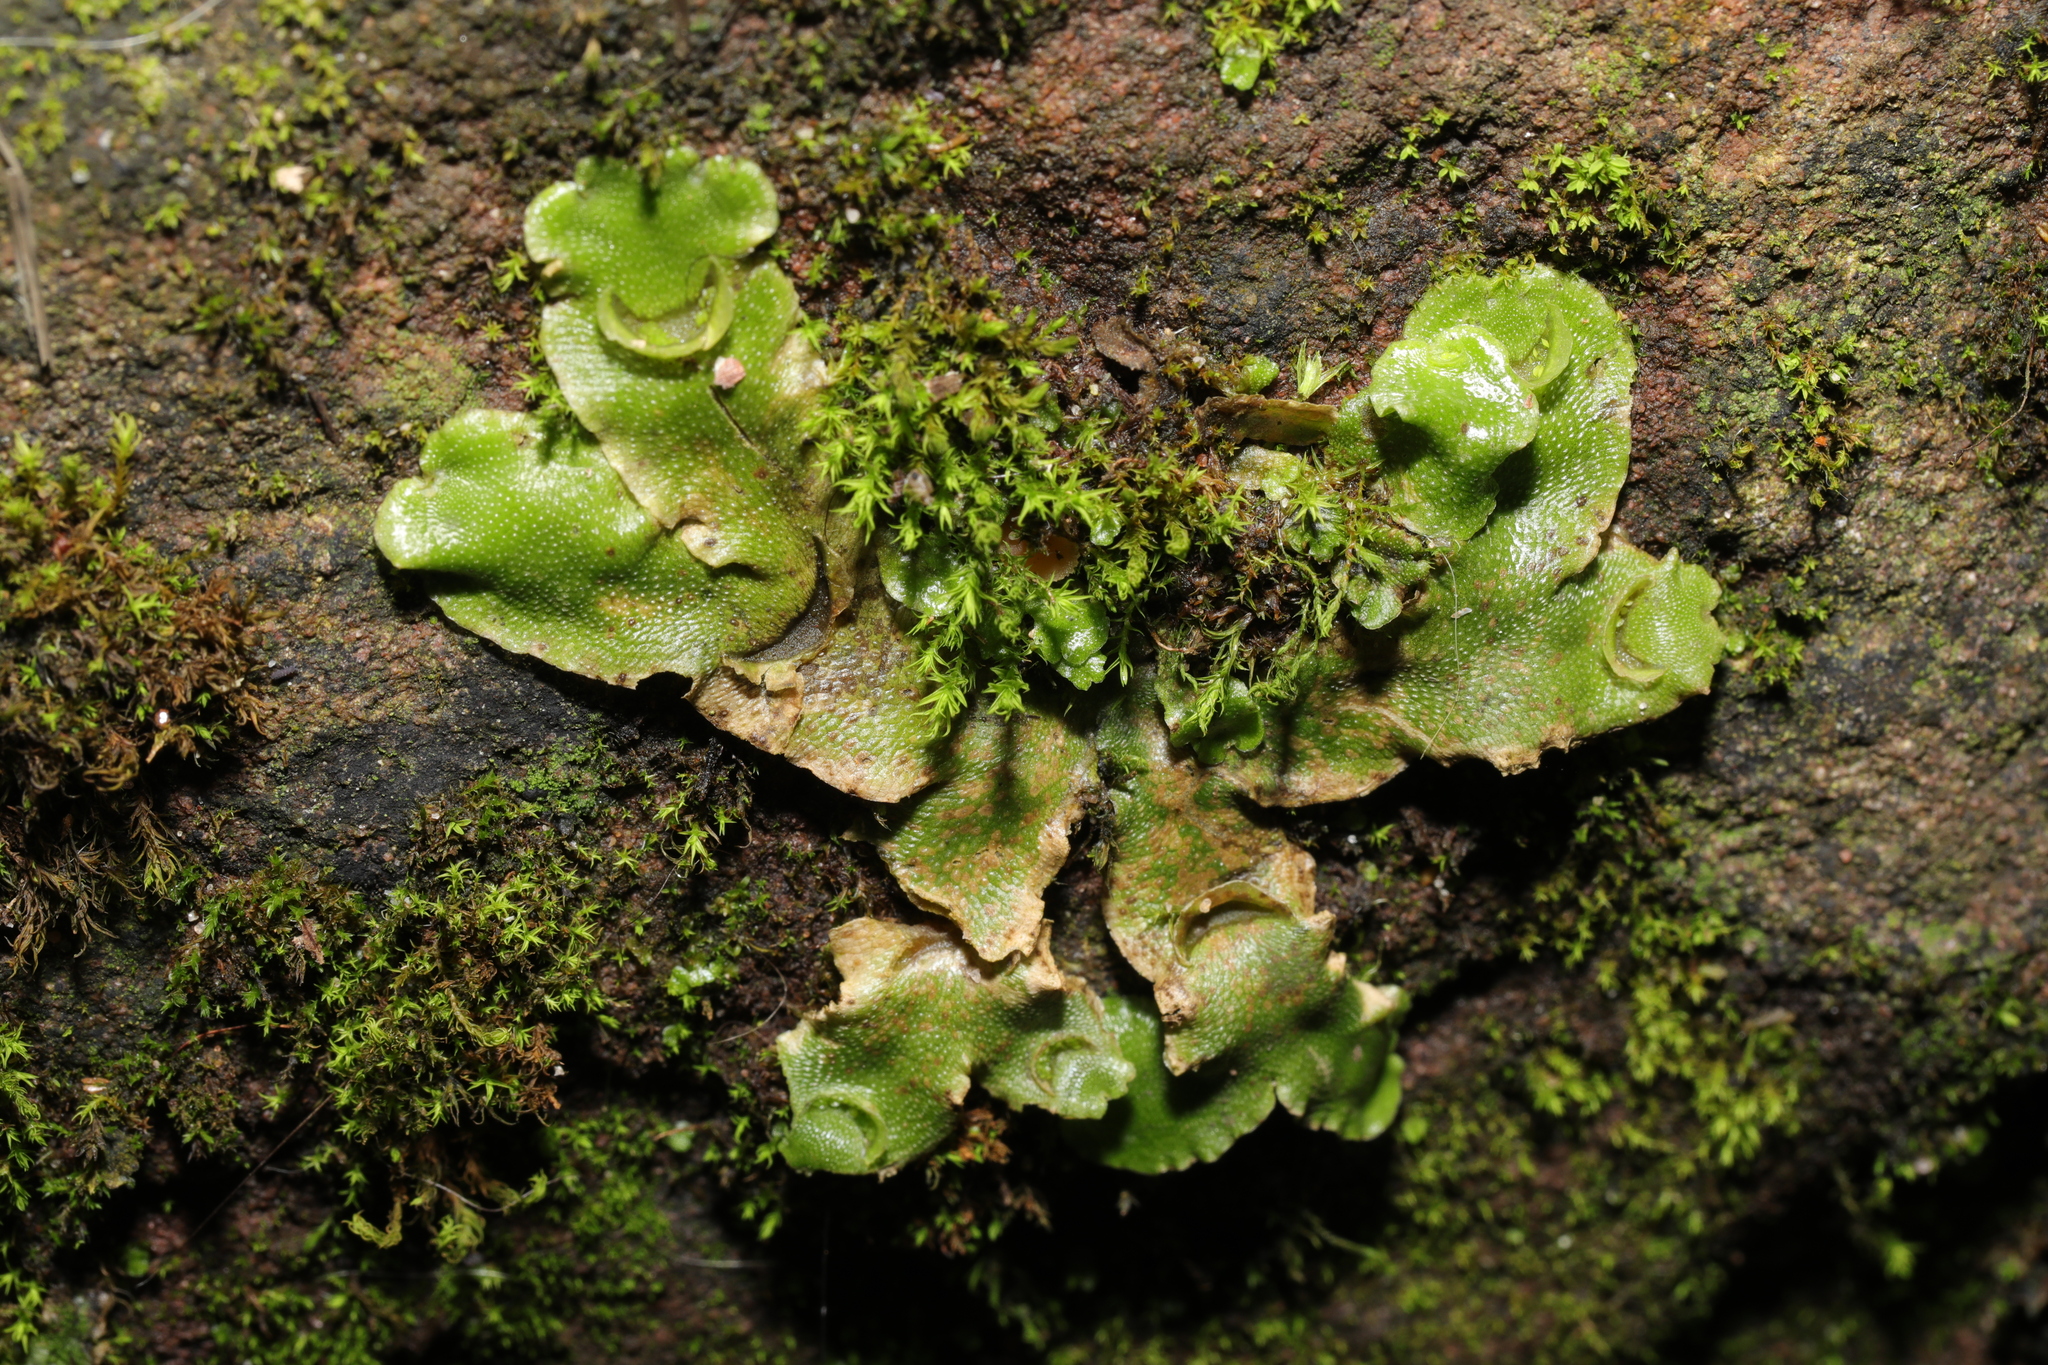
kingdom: Plantae
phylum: Marchantiophyta
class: Marchantiopsida
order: Lunulariales
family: Lunulariaceae
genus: Lunularia
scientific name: Lunularia cruciata
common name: Crescent-cup liverwort
